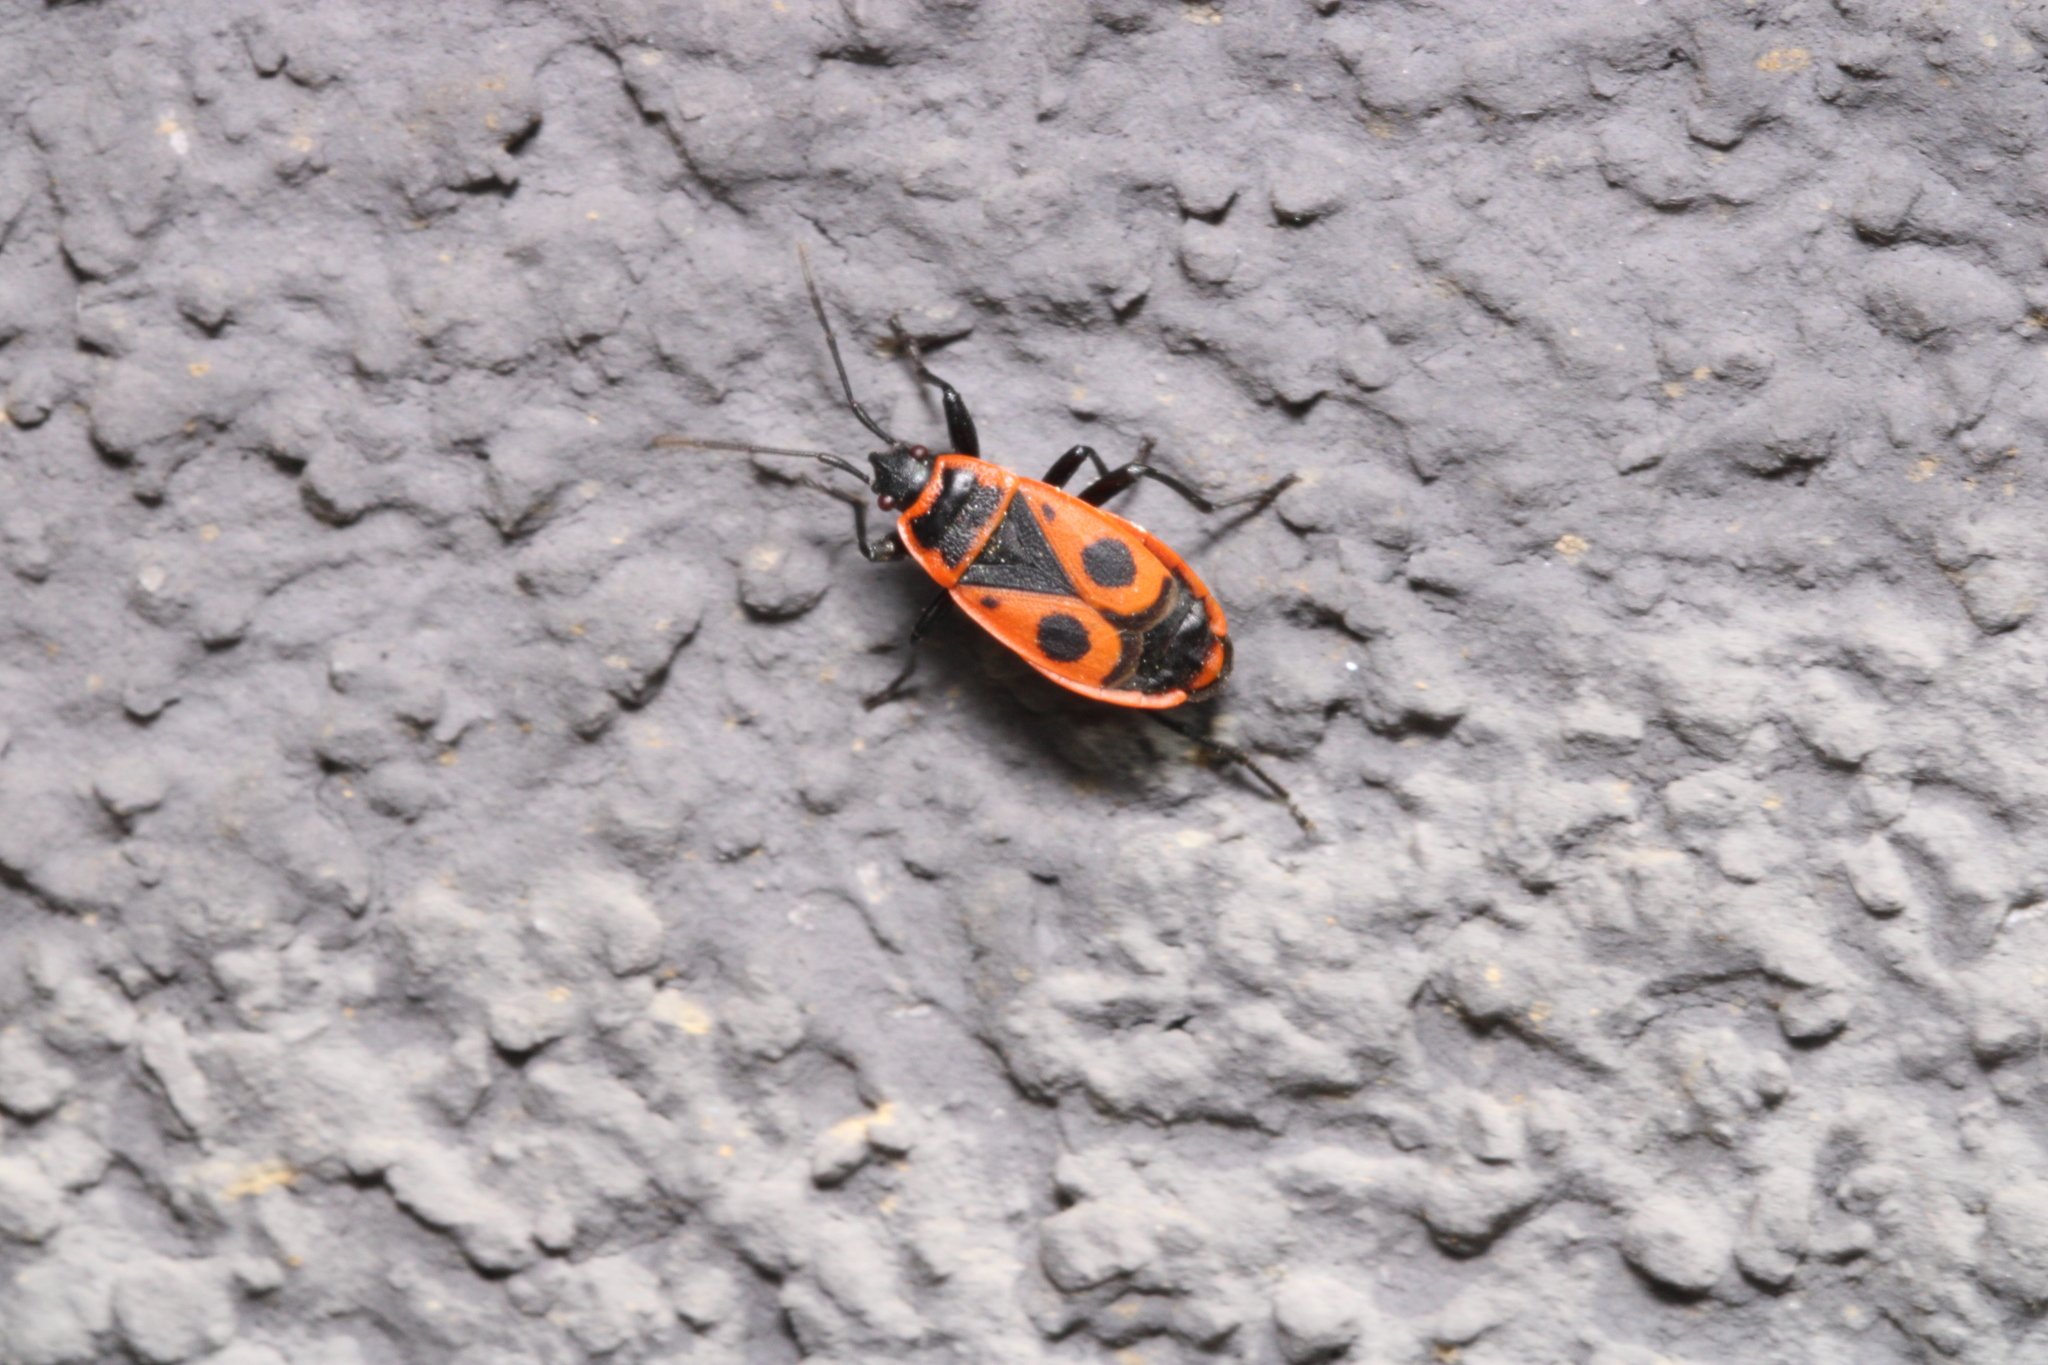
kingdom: Animalia
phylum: Arthropoda
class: Insecta
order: Hemiptera
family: Pyrrhocoridae
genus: Pyrrhocoris
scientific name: Pyrrhocoris apterus
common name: Firebug
